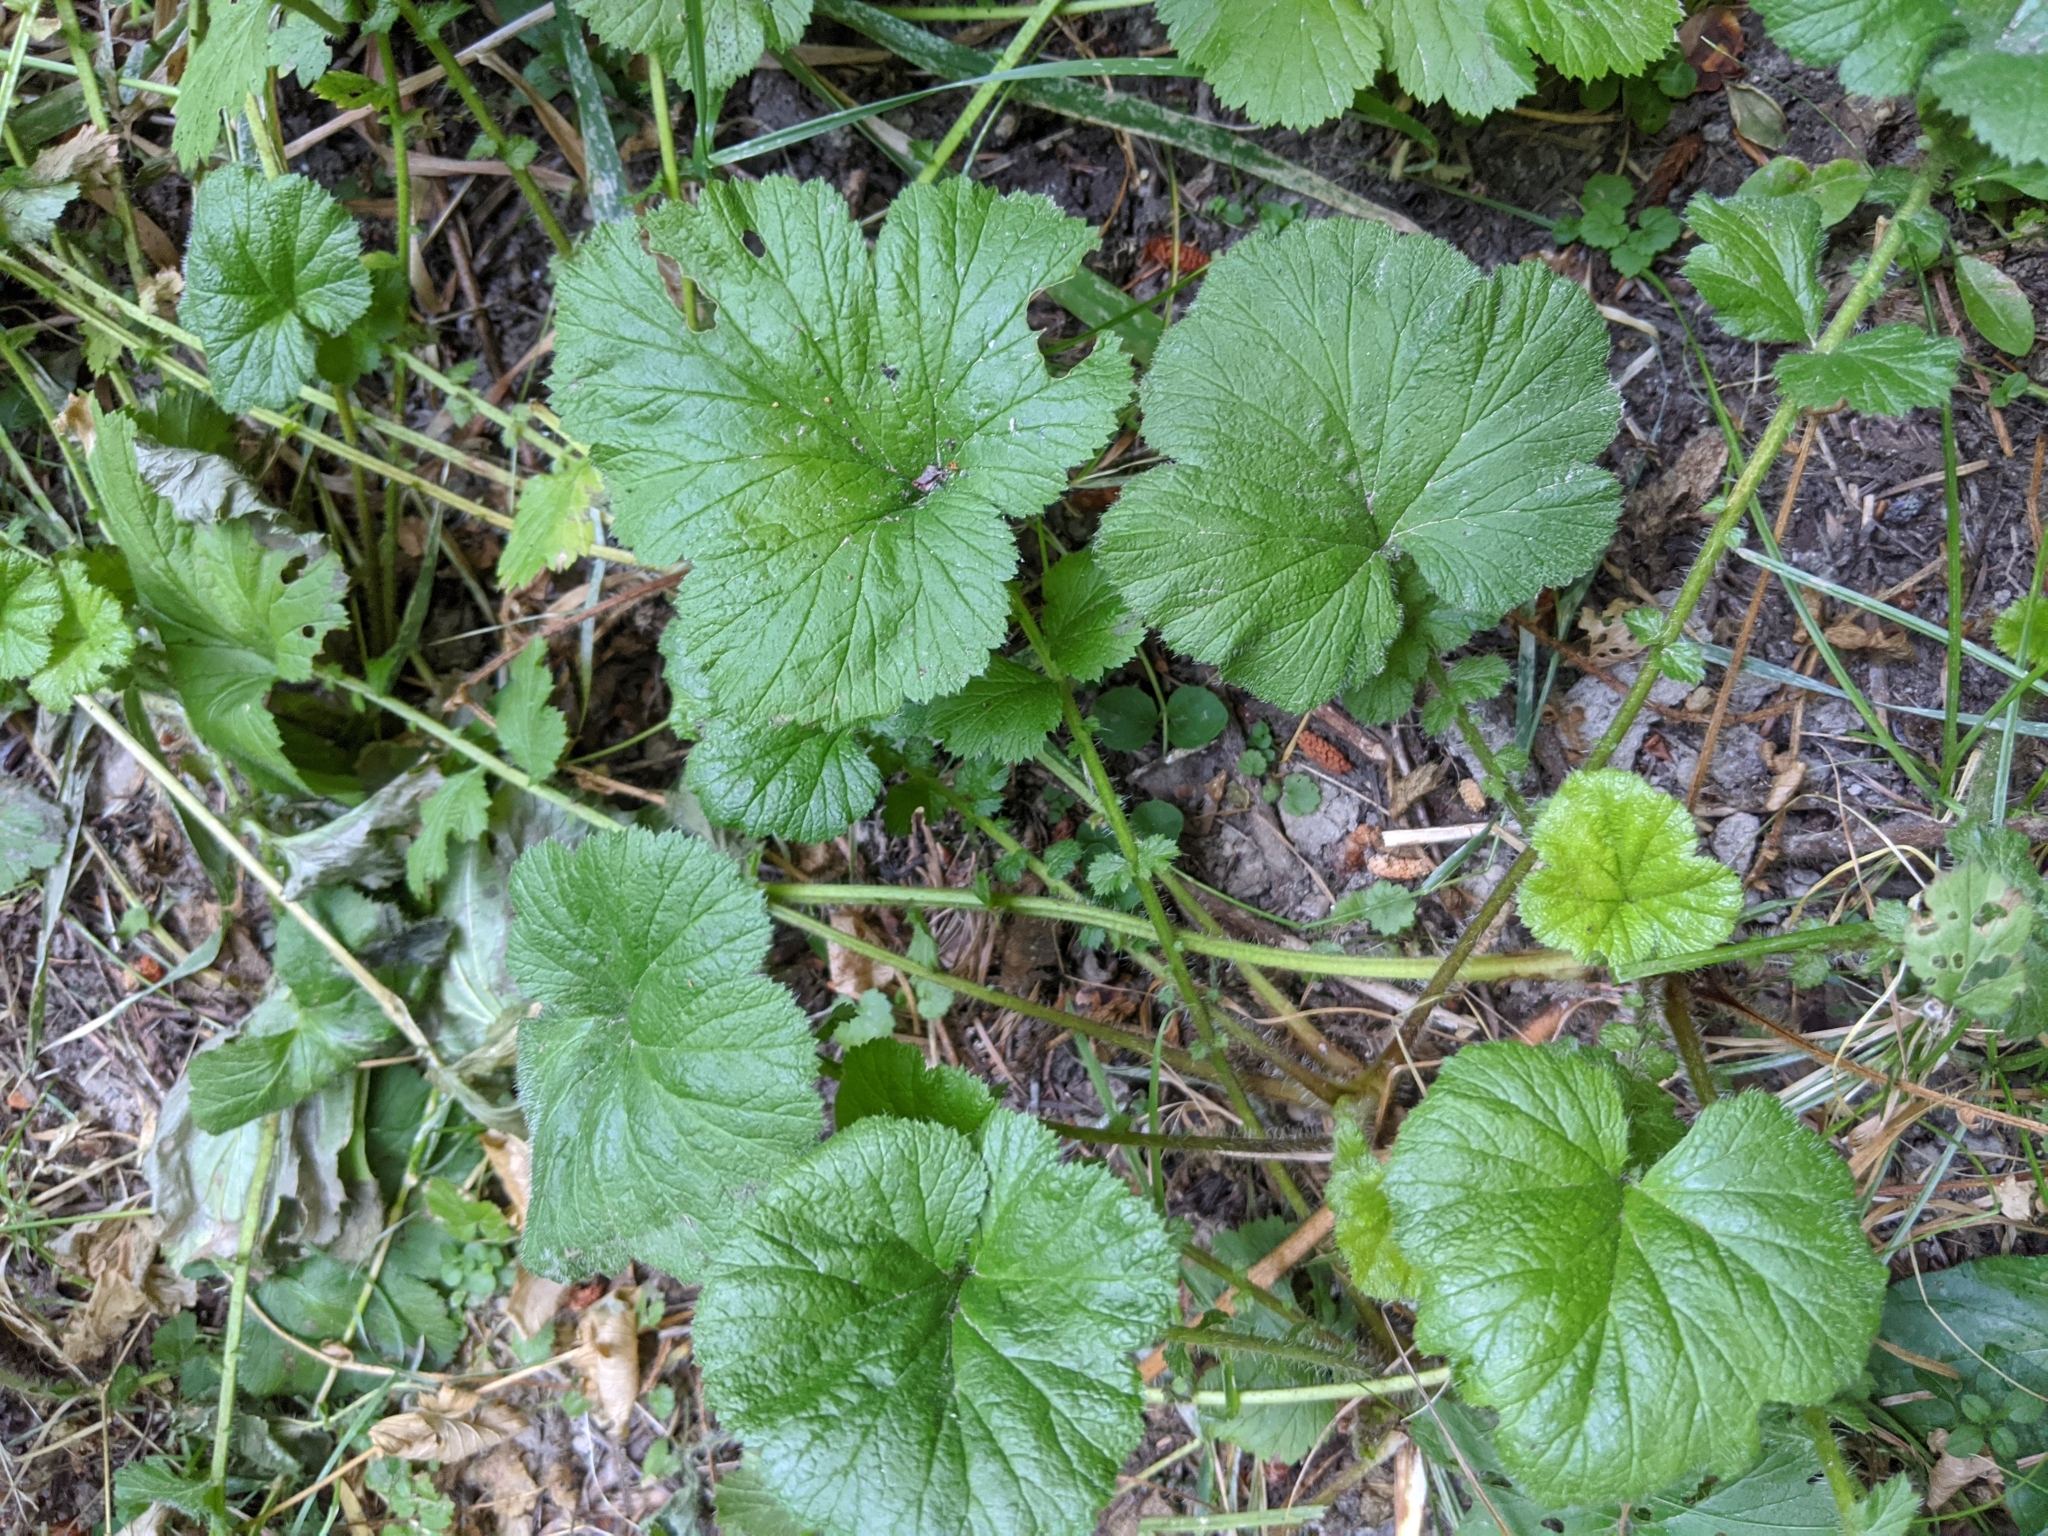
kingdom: Plantae
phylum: Tracheophyta
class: Magnoliopsida
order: Rosales
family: Rosaceae
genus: Geum
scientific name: Geum macrophyllum
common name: Large-leaved avens
